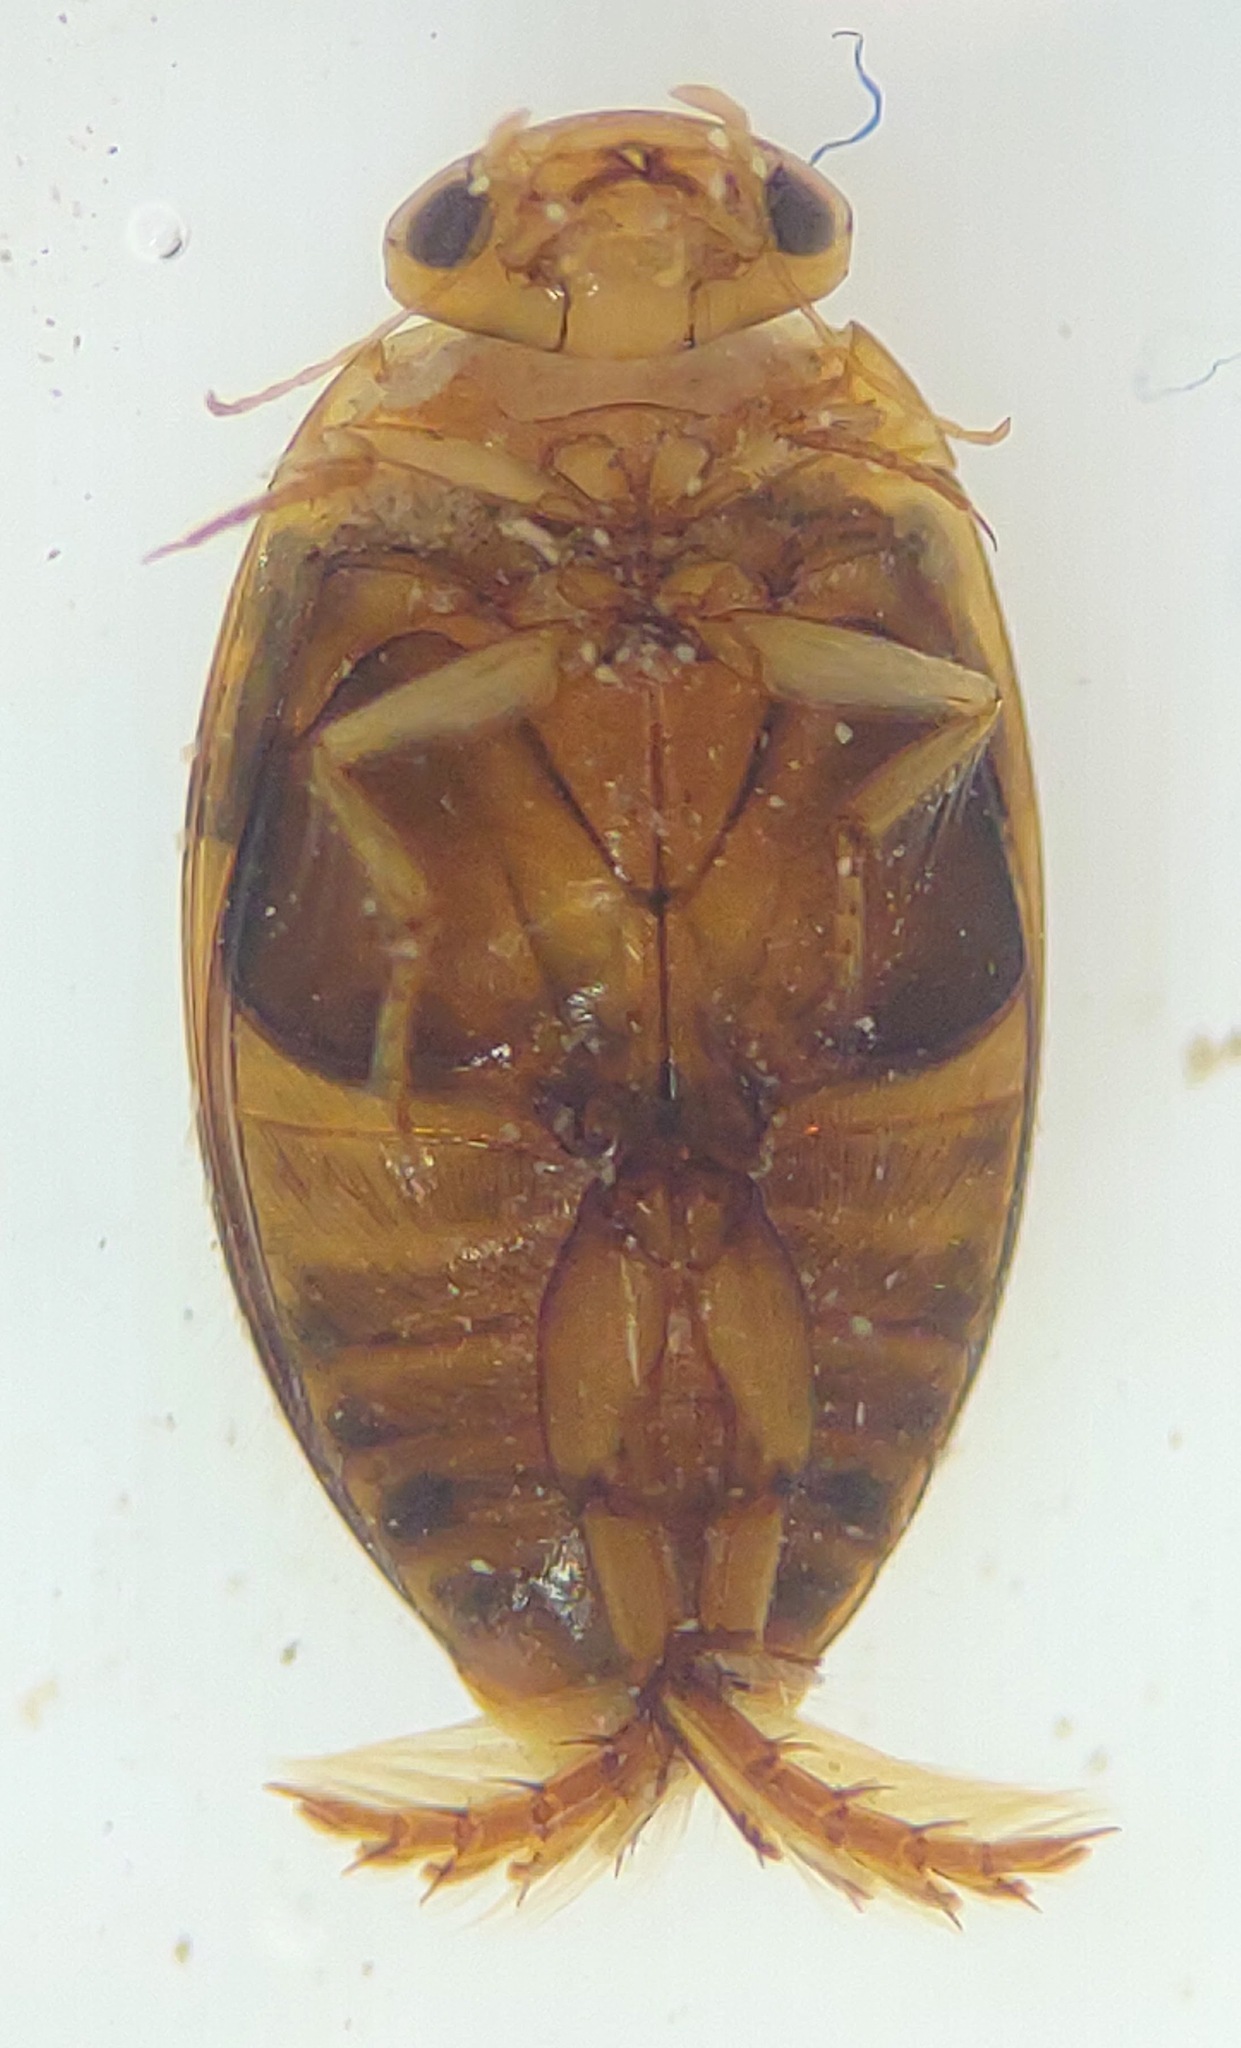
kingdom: Animalia
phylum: Arthropoda
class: Insecta
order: Coleoptera
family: Dytiscidae
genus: Laccophilus
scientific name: Laccophilus maculosus
